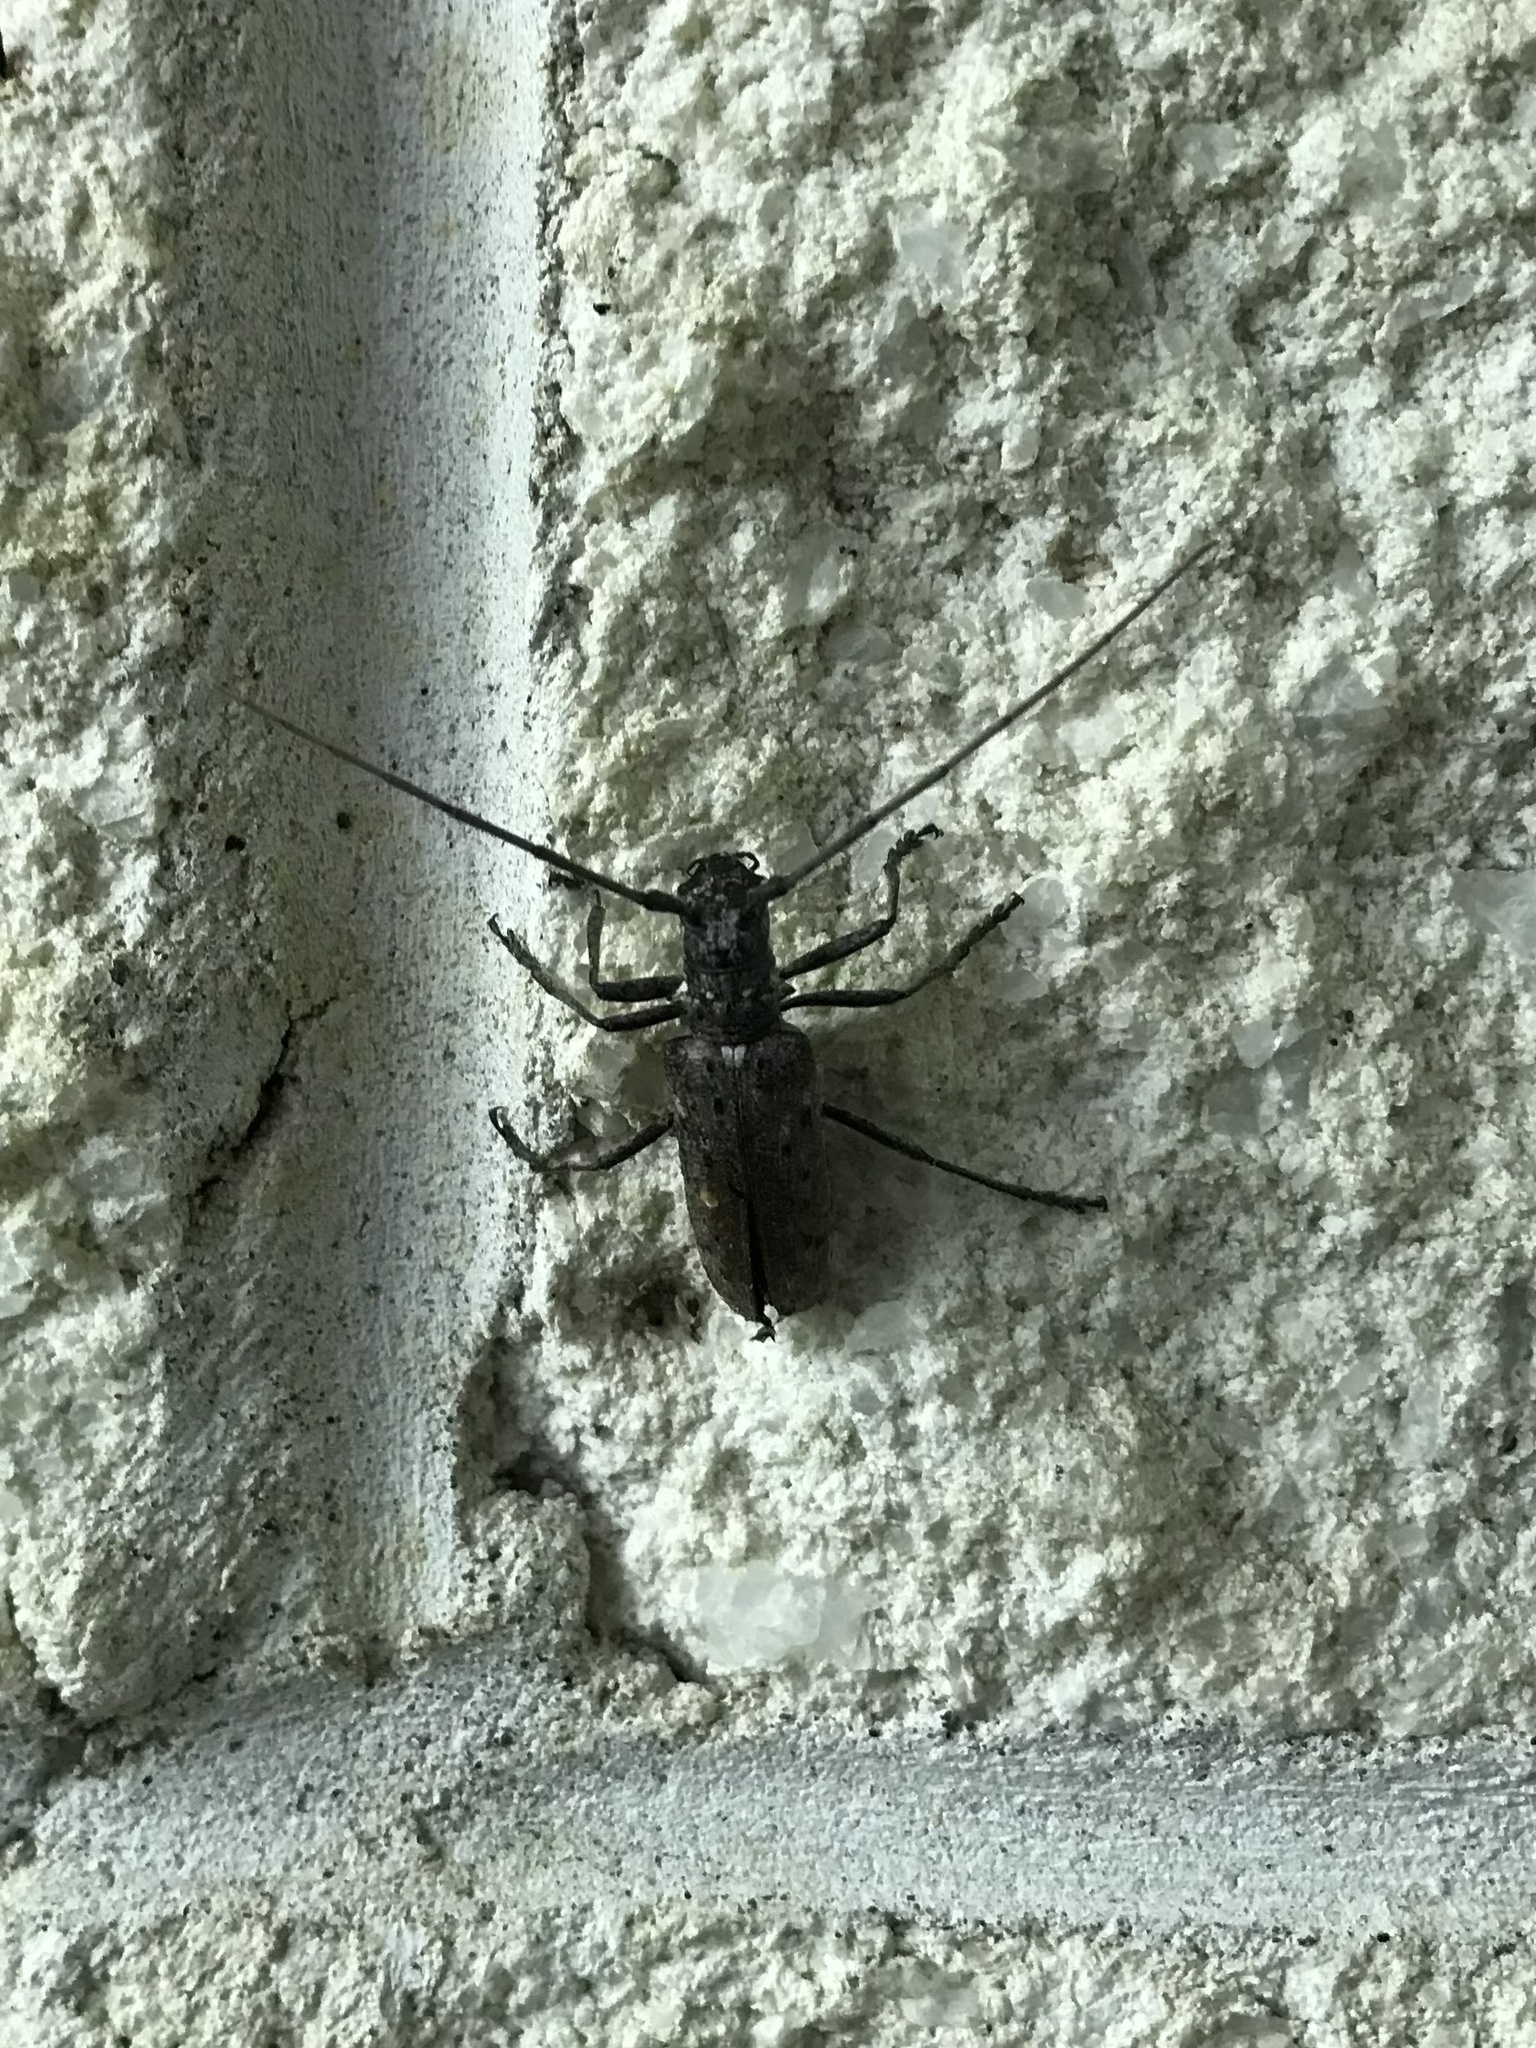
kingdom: Animalia
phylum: Arthropoda
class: Insecta
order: Coleoptera
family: Cerambycidae
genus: Monochamus
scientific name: Monochamus notatus
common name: Northeastern pine sawyer beetle
